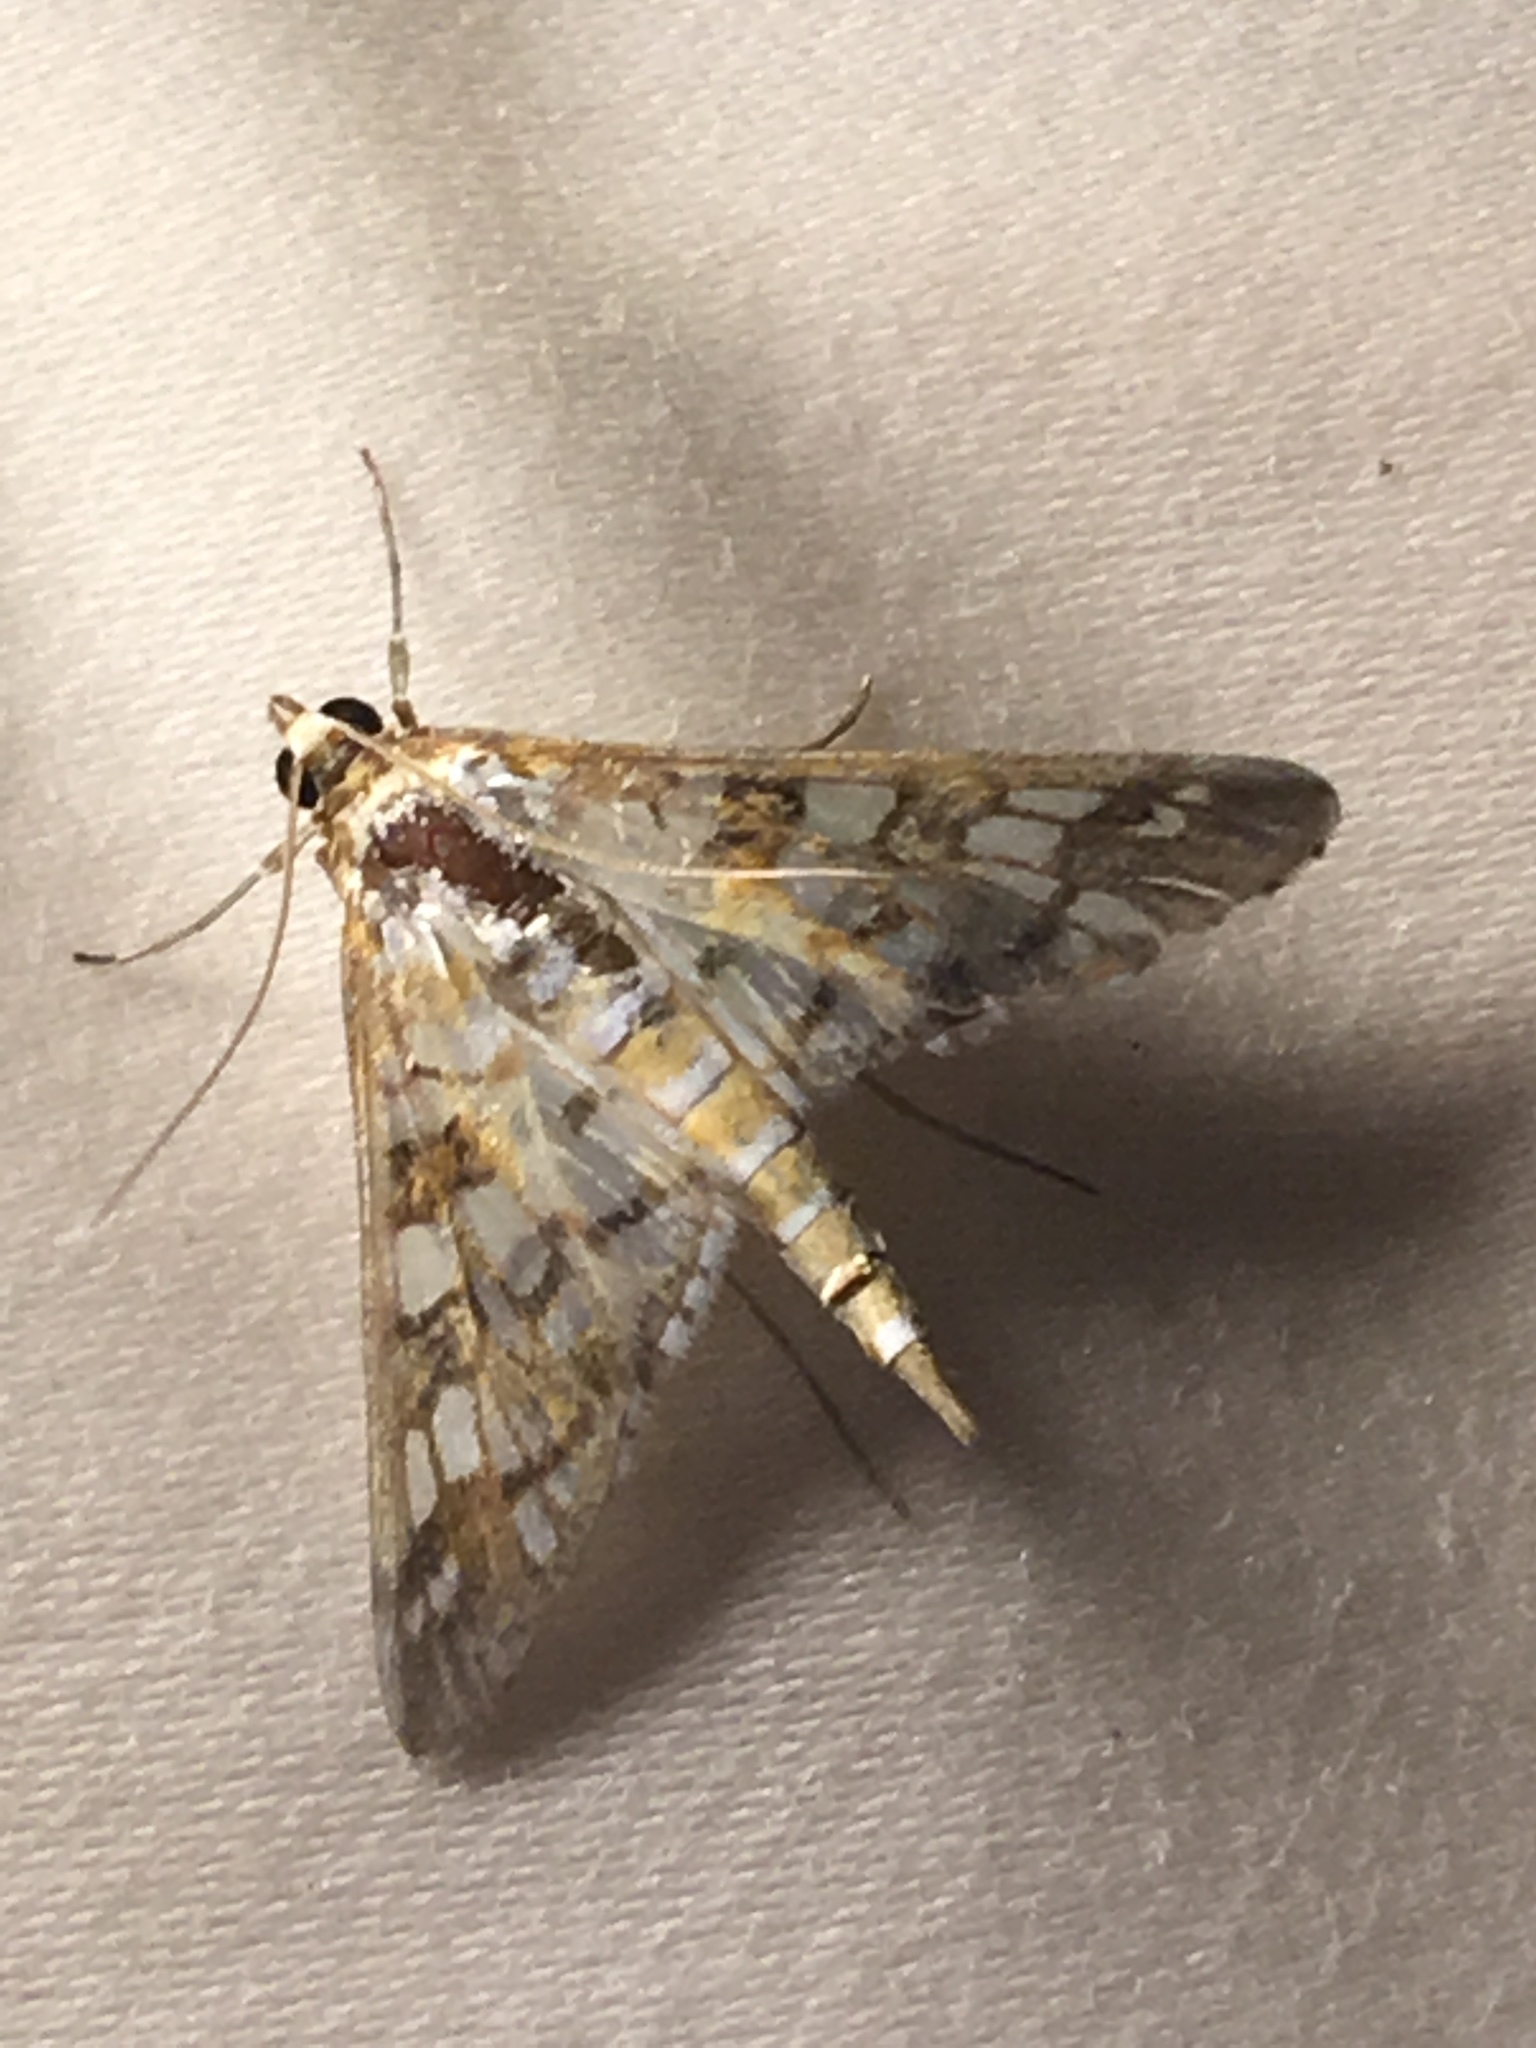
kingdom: Animalia
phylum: Arthropoda
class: Insecta
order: Lepidoptera
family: Crambidae
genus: Epipagis
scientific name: Epipagis fenestralis
